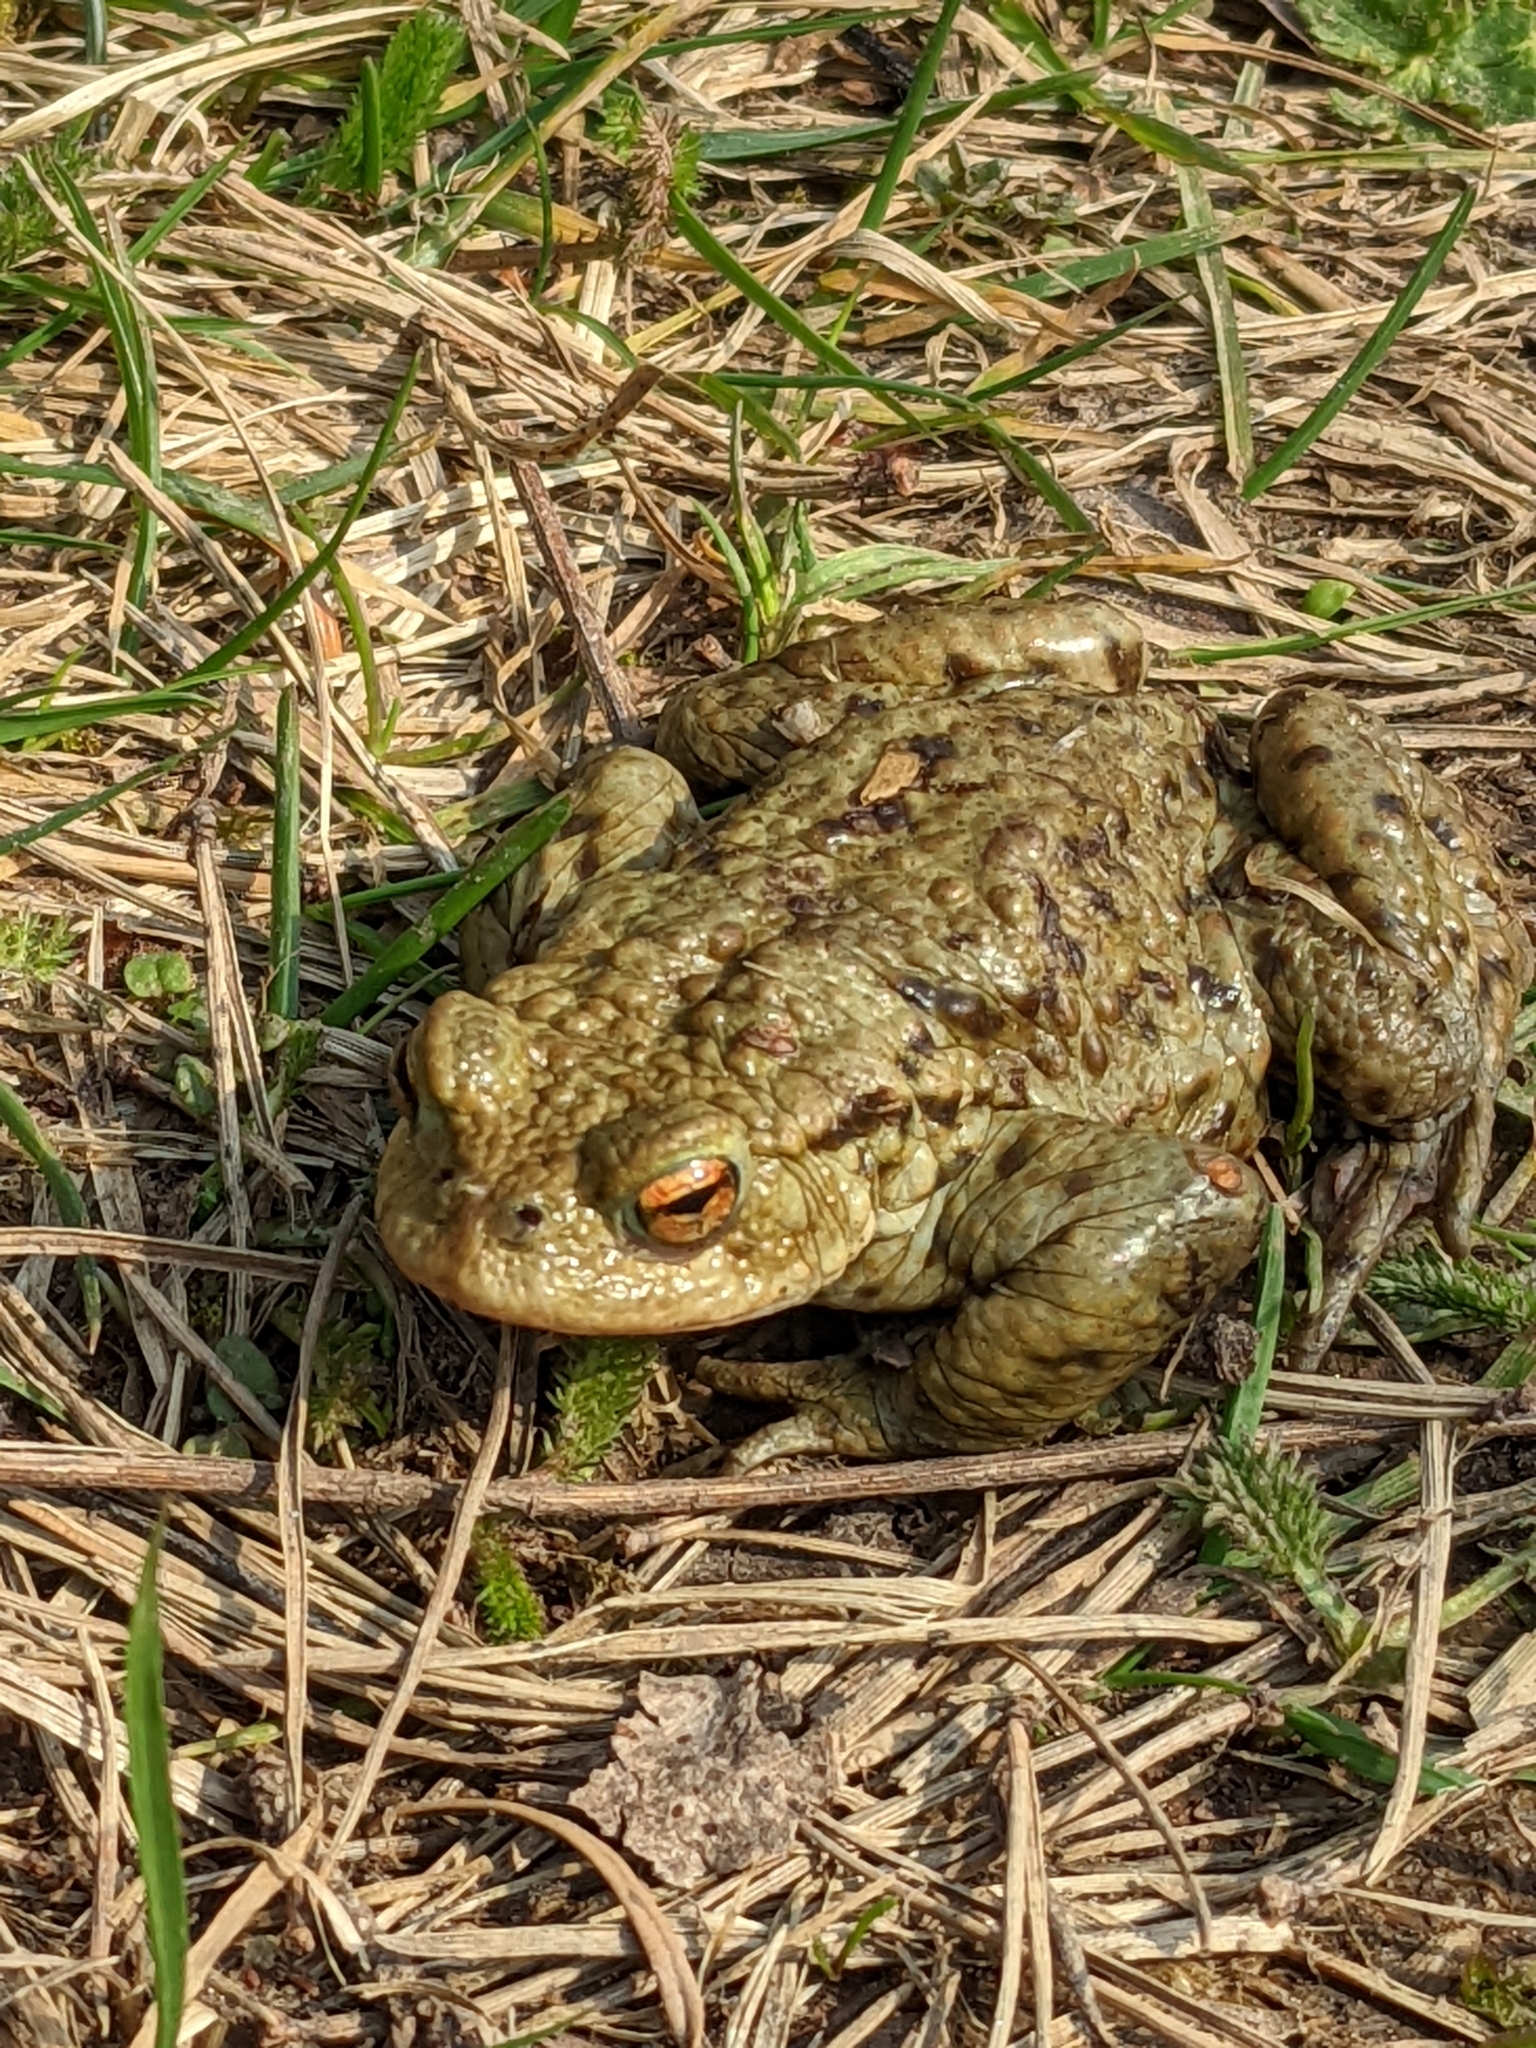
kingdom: Animalia
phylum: Chordata
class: Amphibia
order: Anura
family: Bufonidae
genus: Bufo
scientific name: Bufo bufo
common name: Common toad
